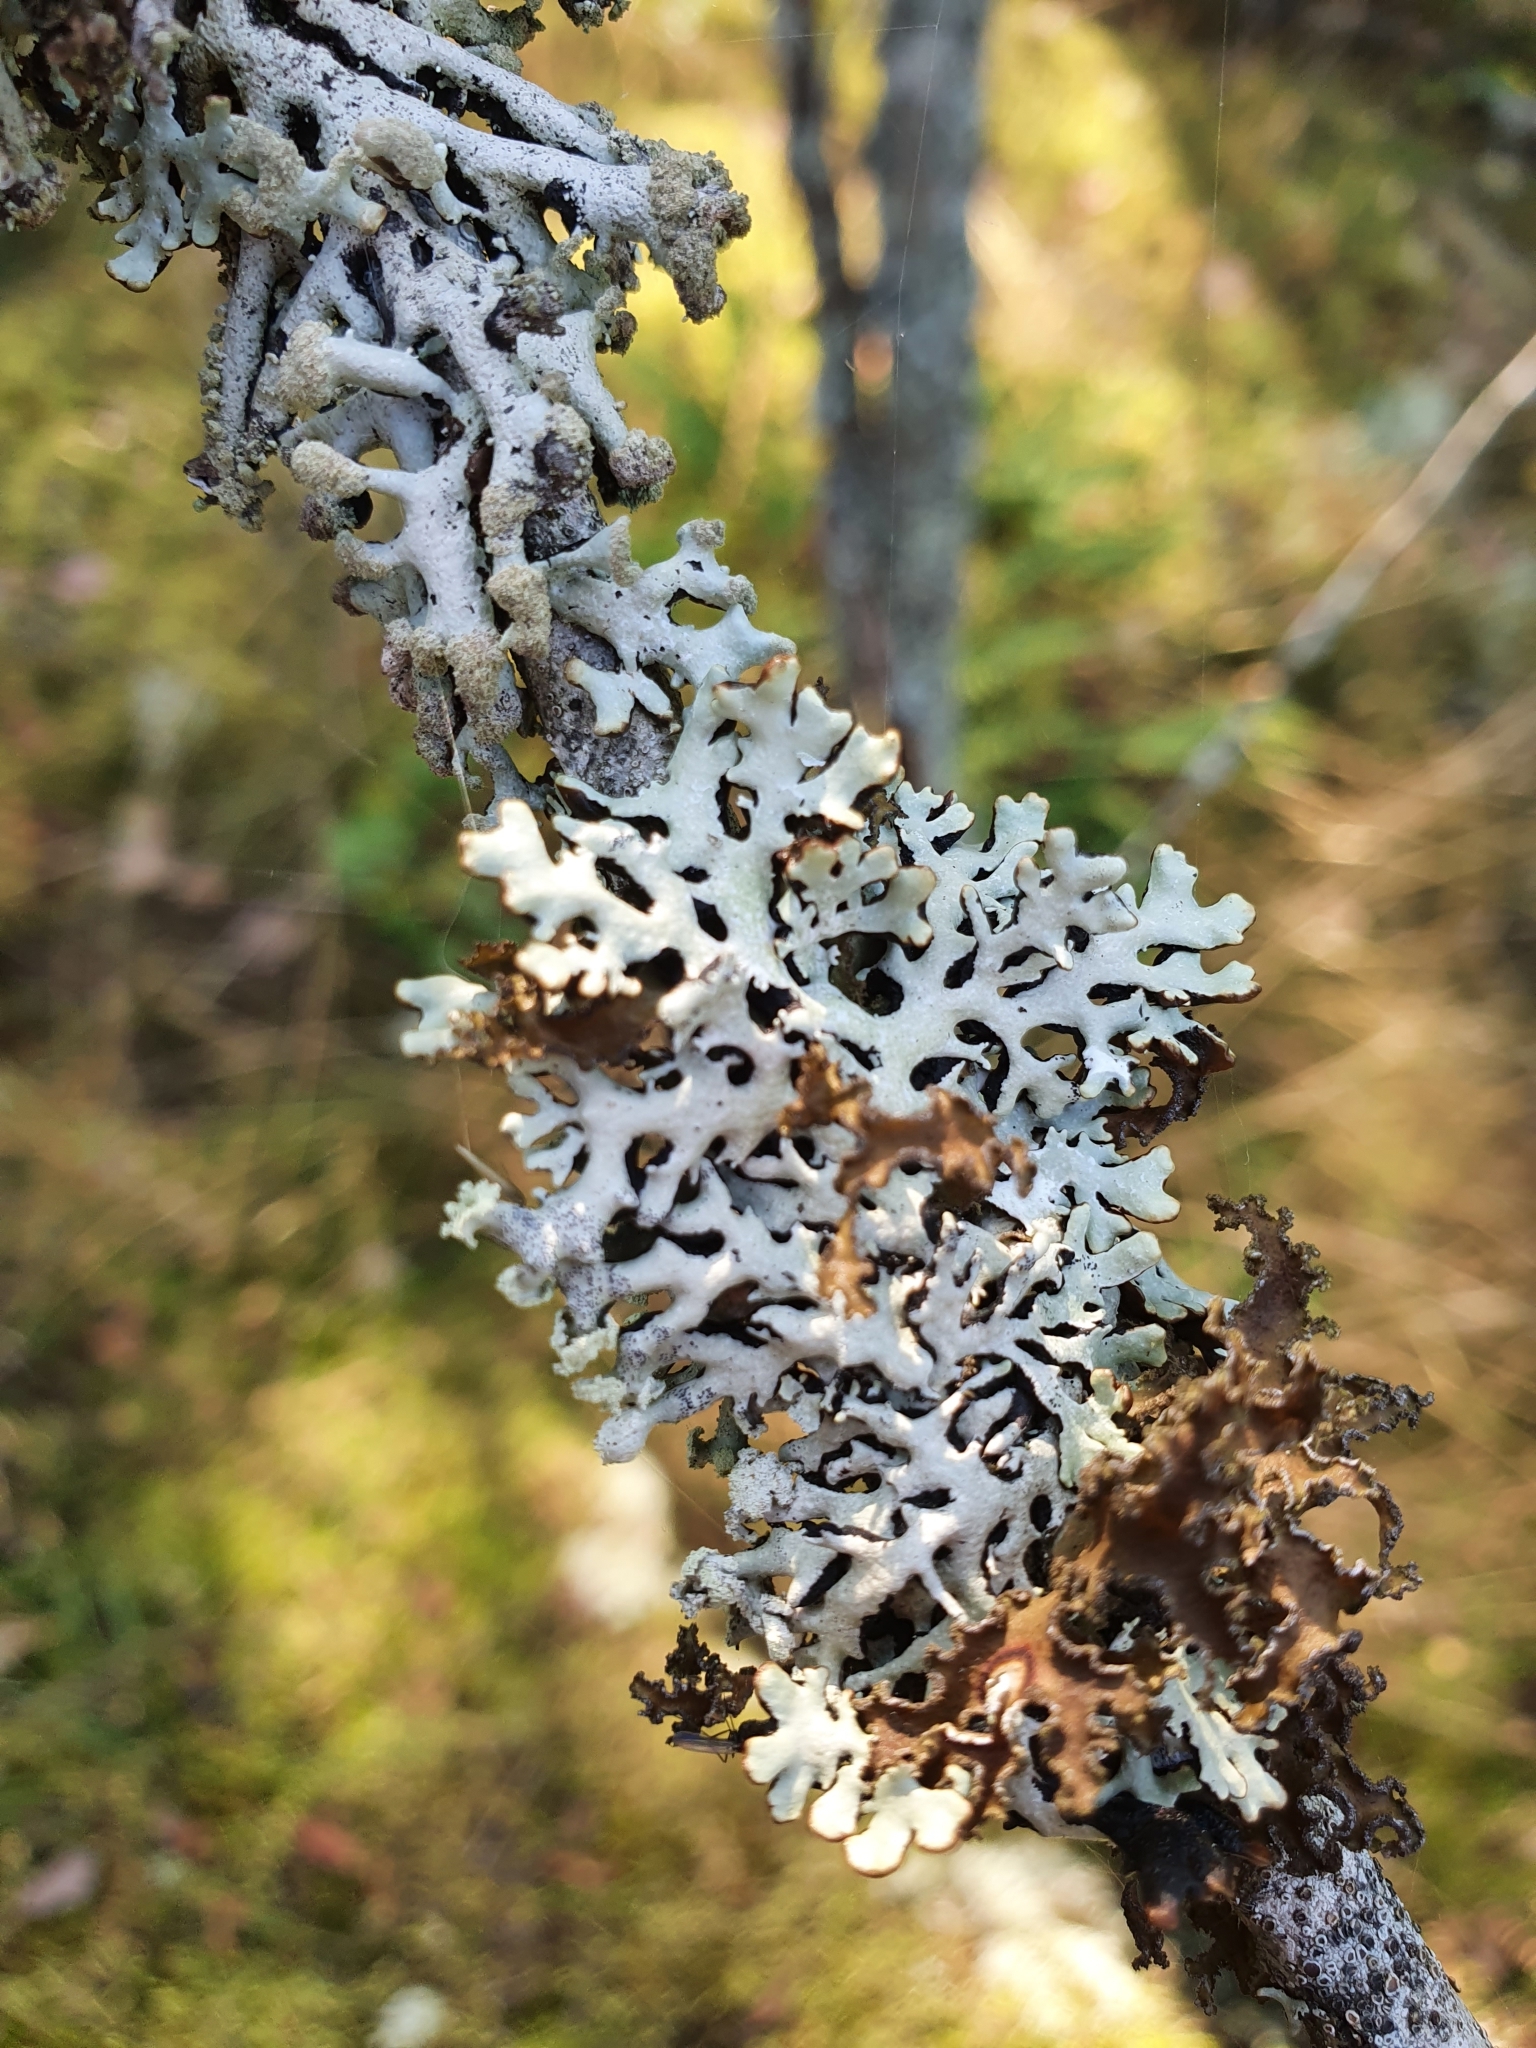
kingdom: Fungi
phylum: Ascomycota
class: Lecanoromycetes
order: Lecanorales
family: Parmeliaceae
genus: Hypogymnia
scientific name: Hypogymnia physodes
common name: Dark crottle
